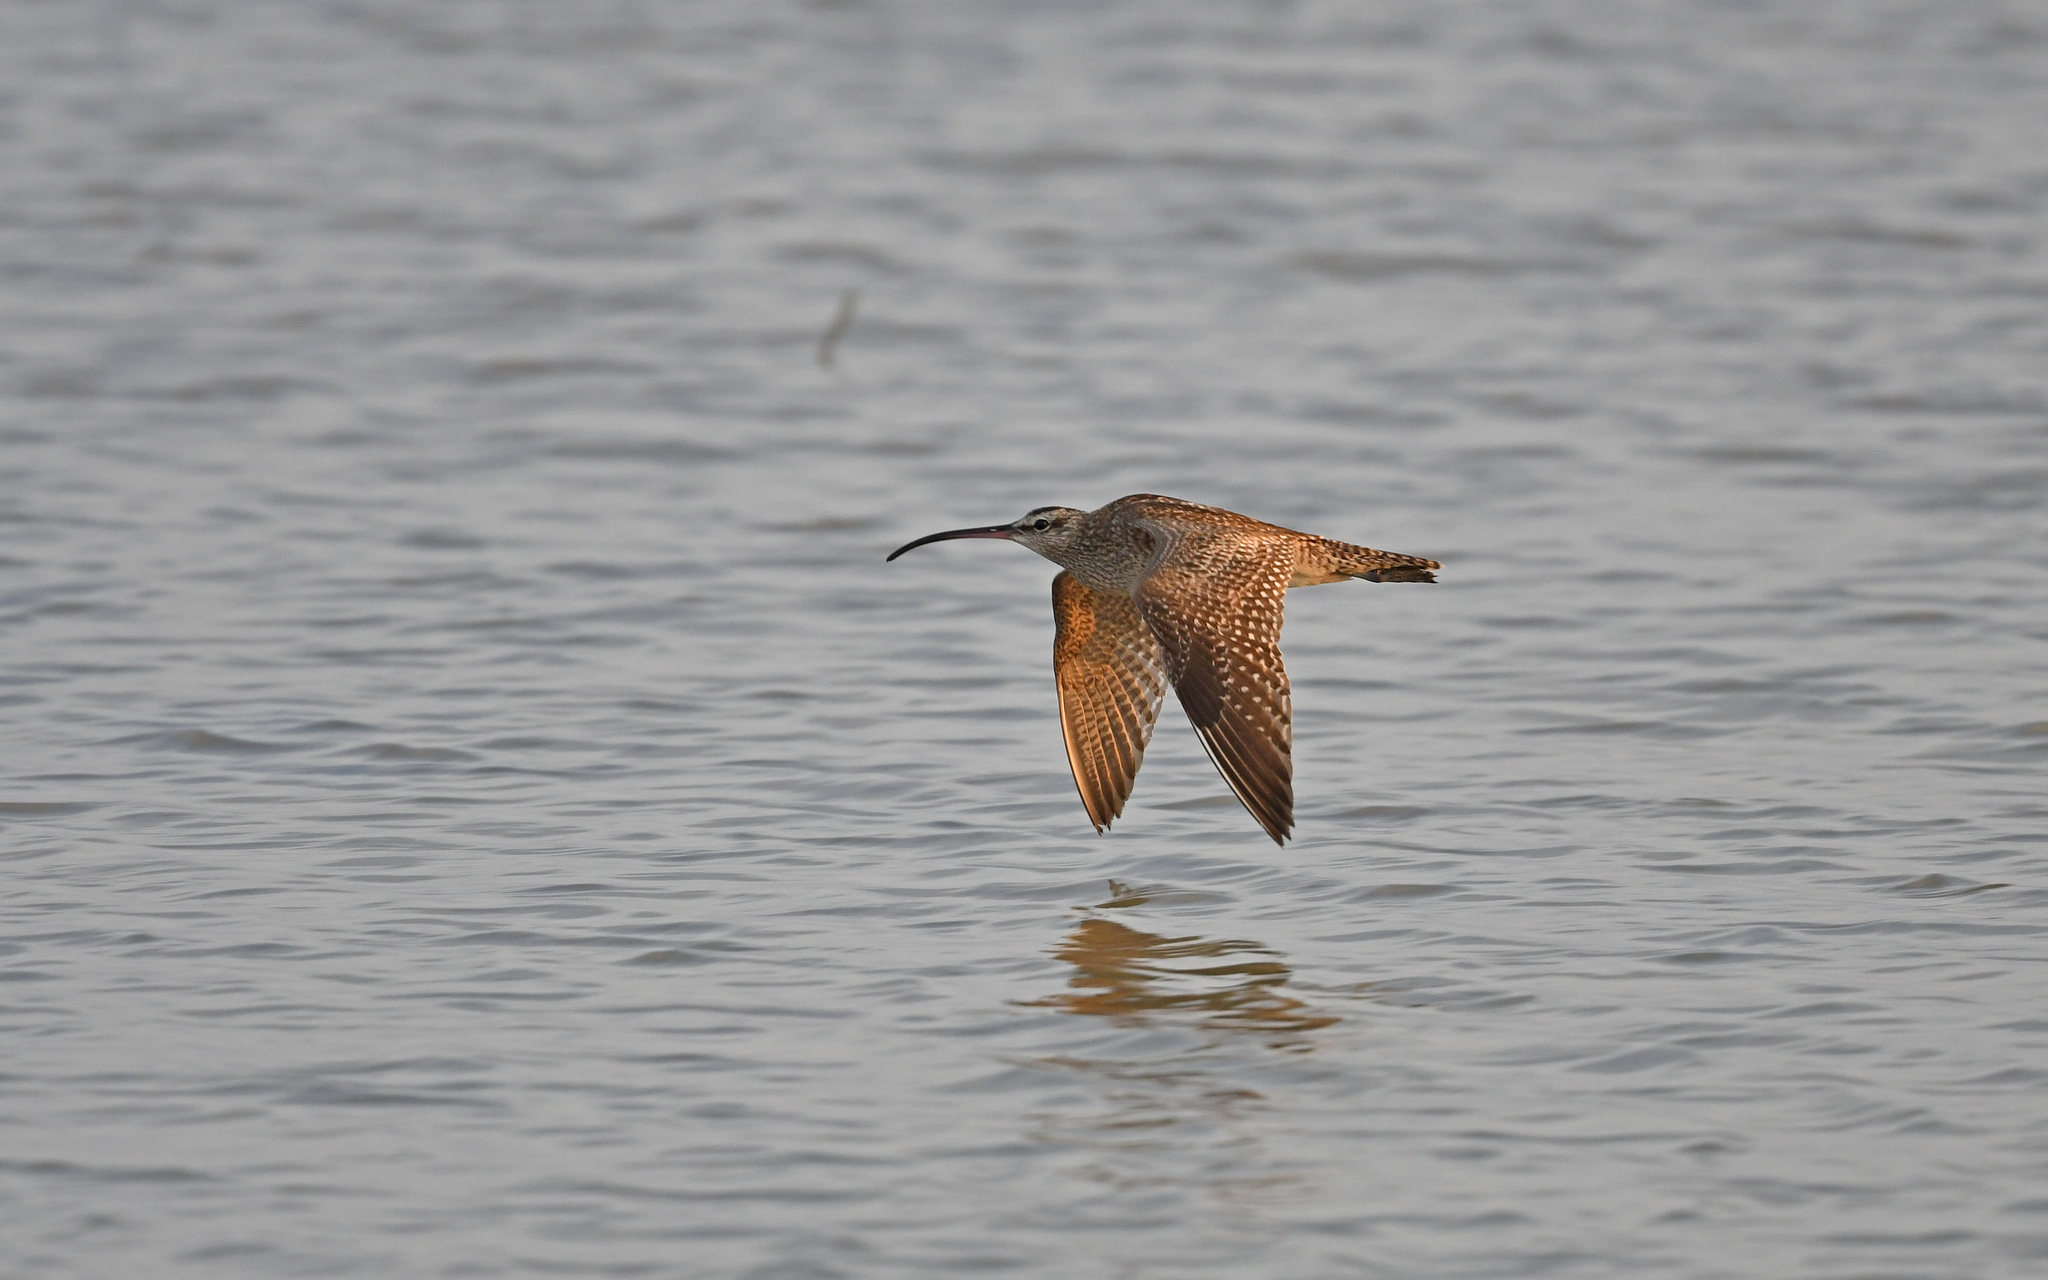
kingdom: Animalia
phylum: Chordata
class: Aves
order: Charadriiformes
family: Scolopacidae
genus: Numenius
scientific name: Numenius phaeopus
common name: Whimbrel
